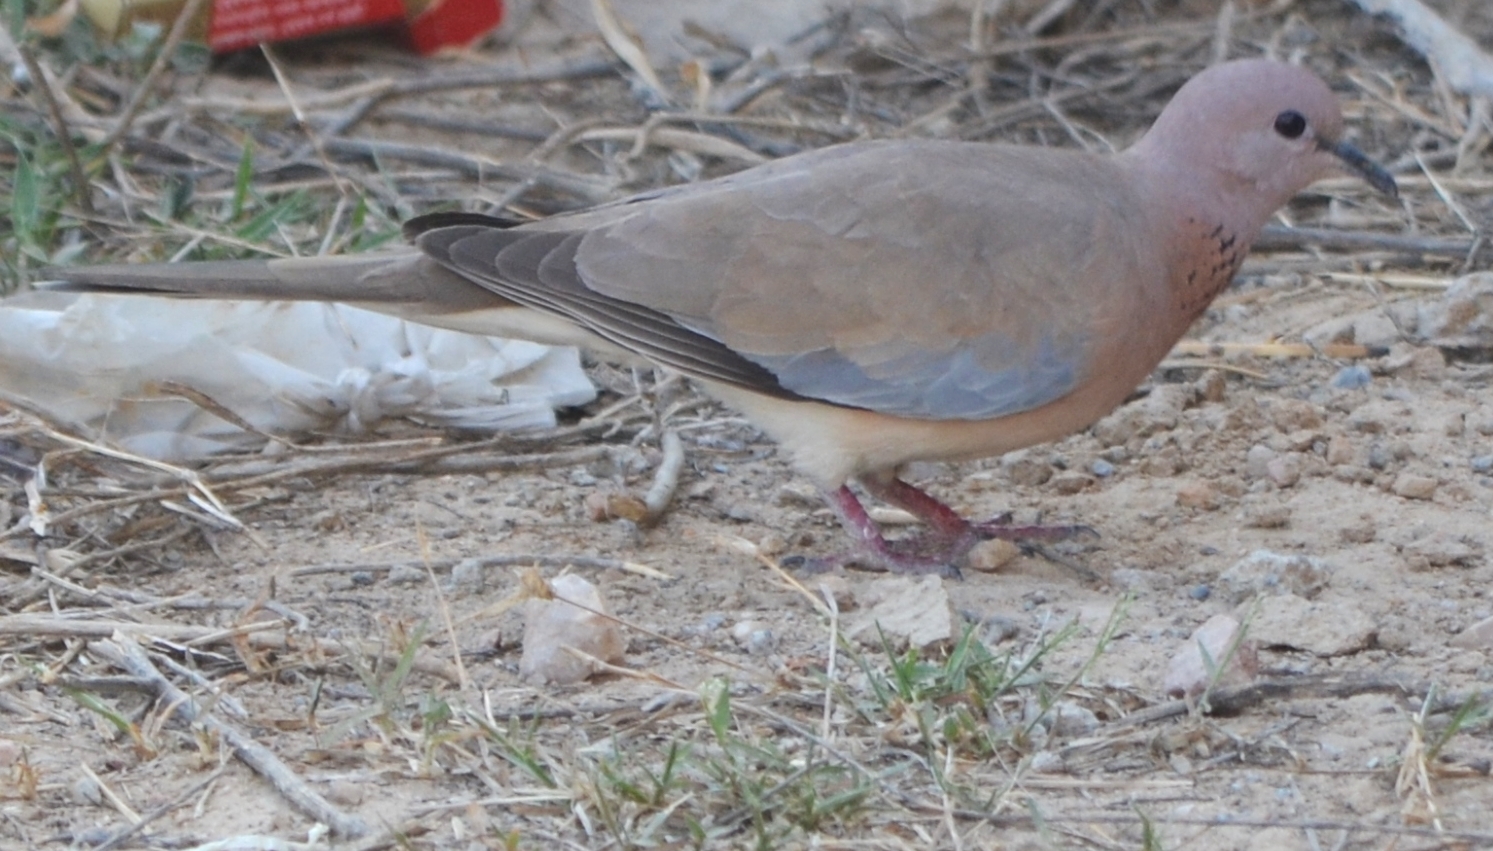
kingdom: Animalia
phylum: Chordata
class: Aves
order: Columbiformes
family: Columbidae
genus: Spilopelia
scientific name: Spilopelia senegalensis
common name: Laughing dove
